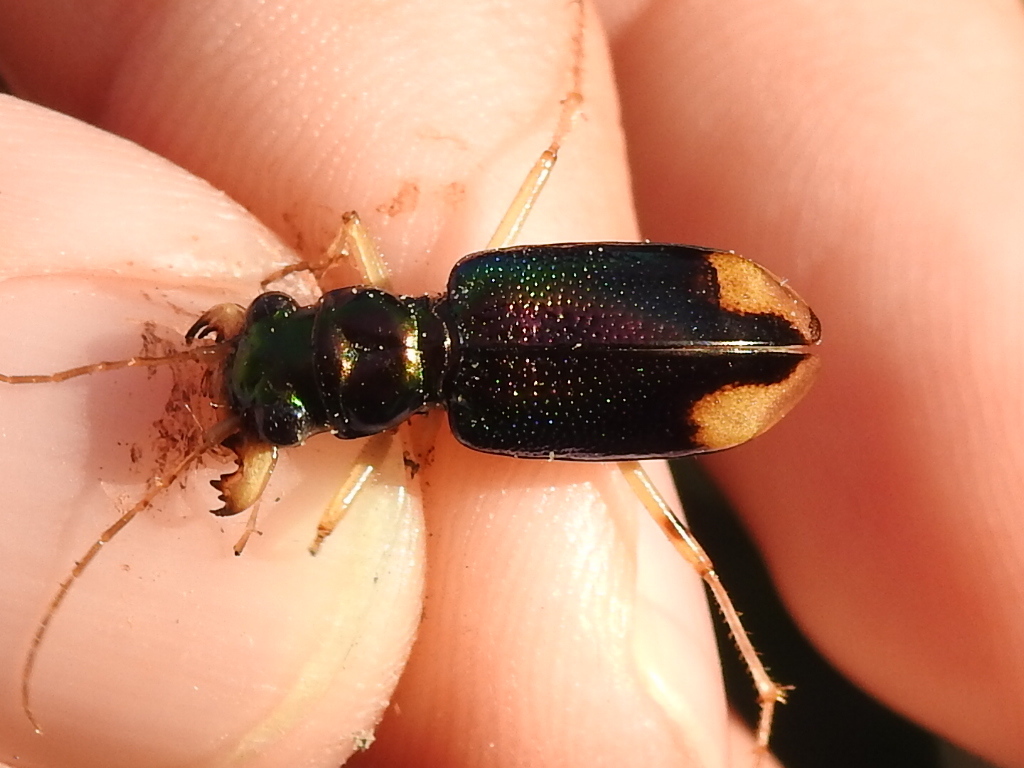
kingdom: Animalia
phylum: Arthropoda
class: Insecta
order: Coleoptera
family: Carabidae
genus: Tetracha
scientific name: Tetracha carolina
